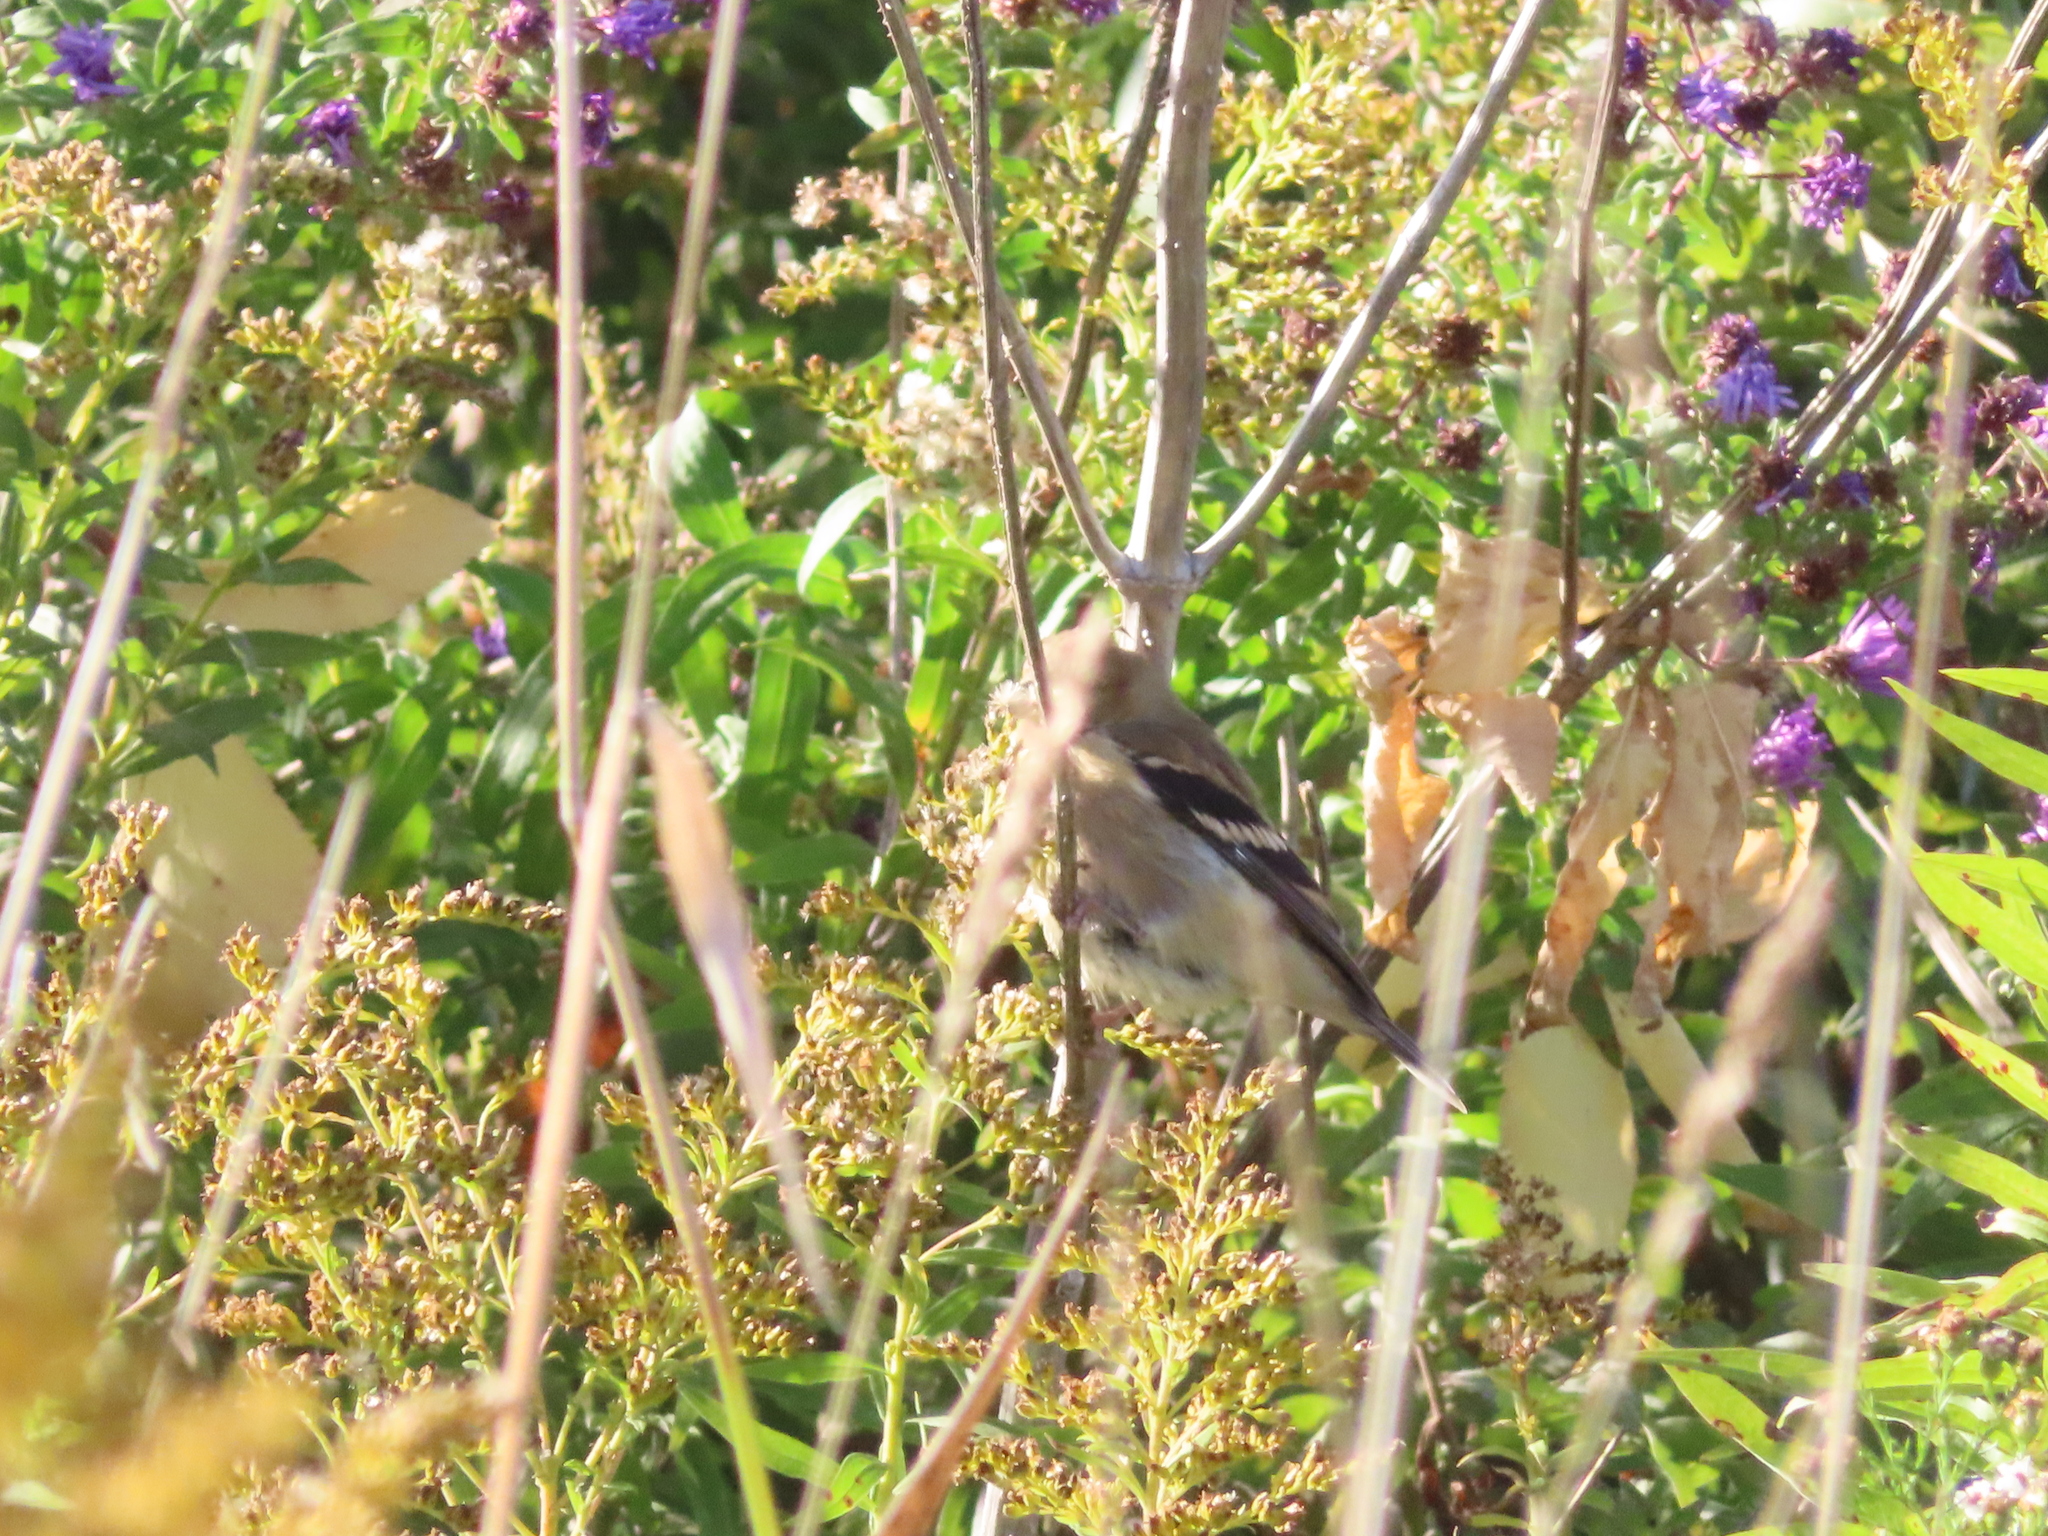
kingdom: Animalia
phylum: Chordata
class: Aves
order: Passeriformes
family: Fringillidae
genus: Spinus
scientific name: Spinus tristis
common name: American goldfinch
